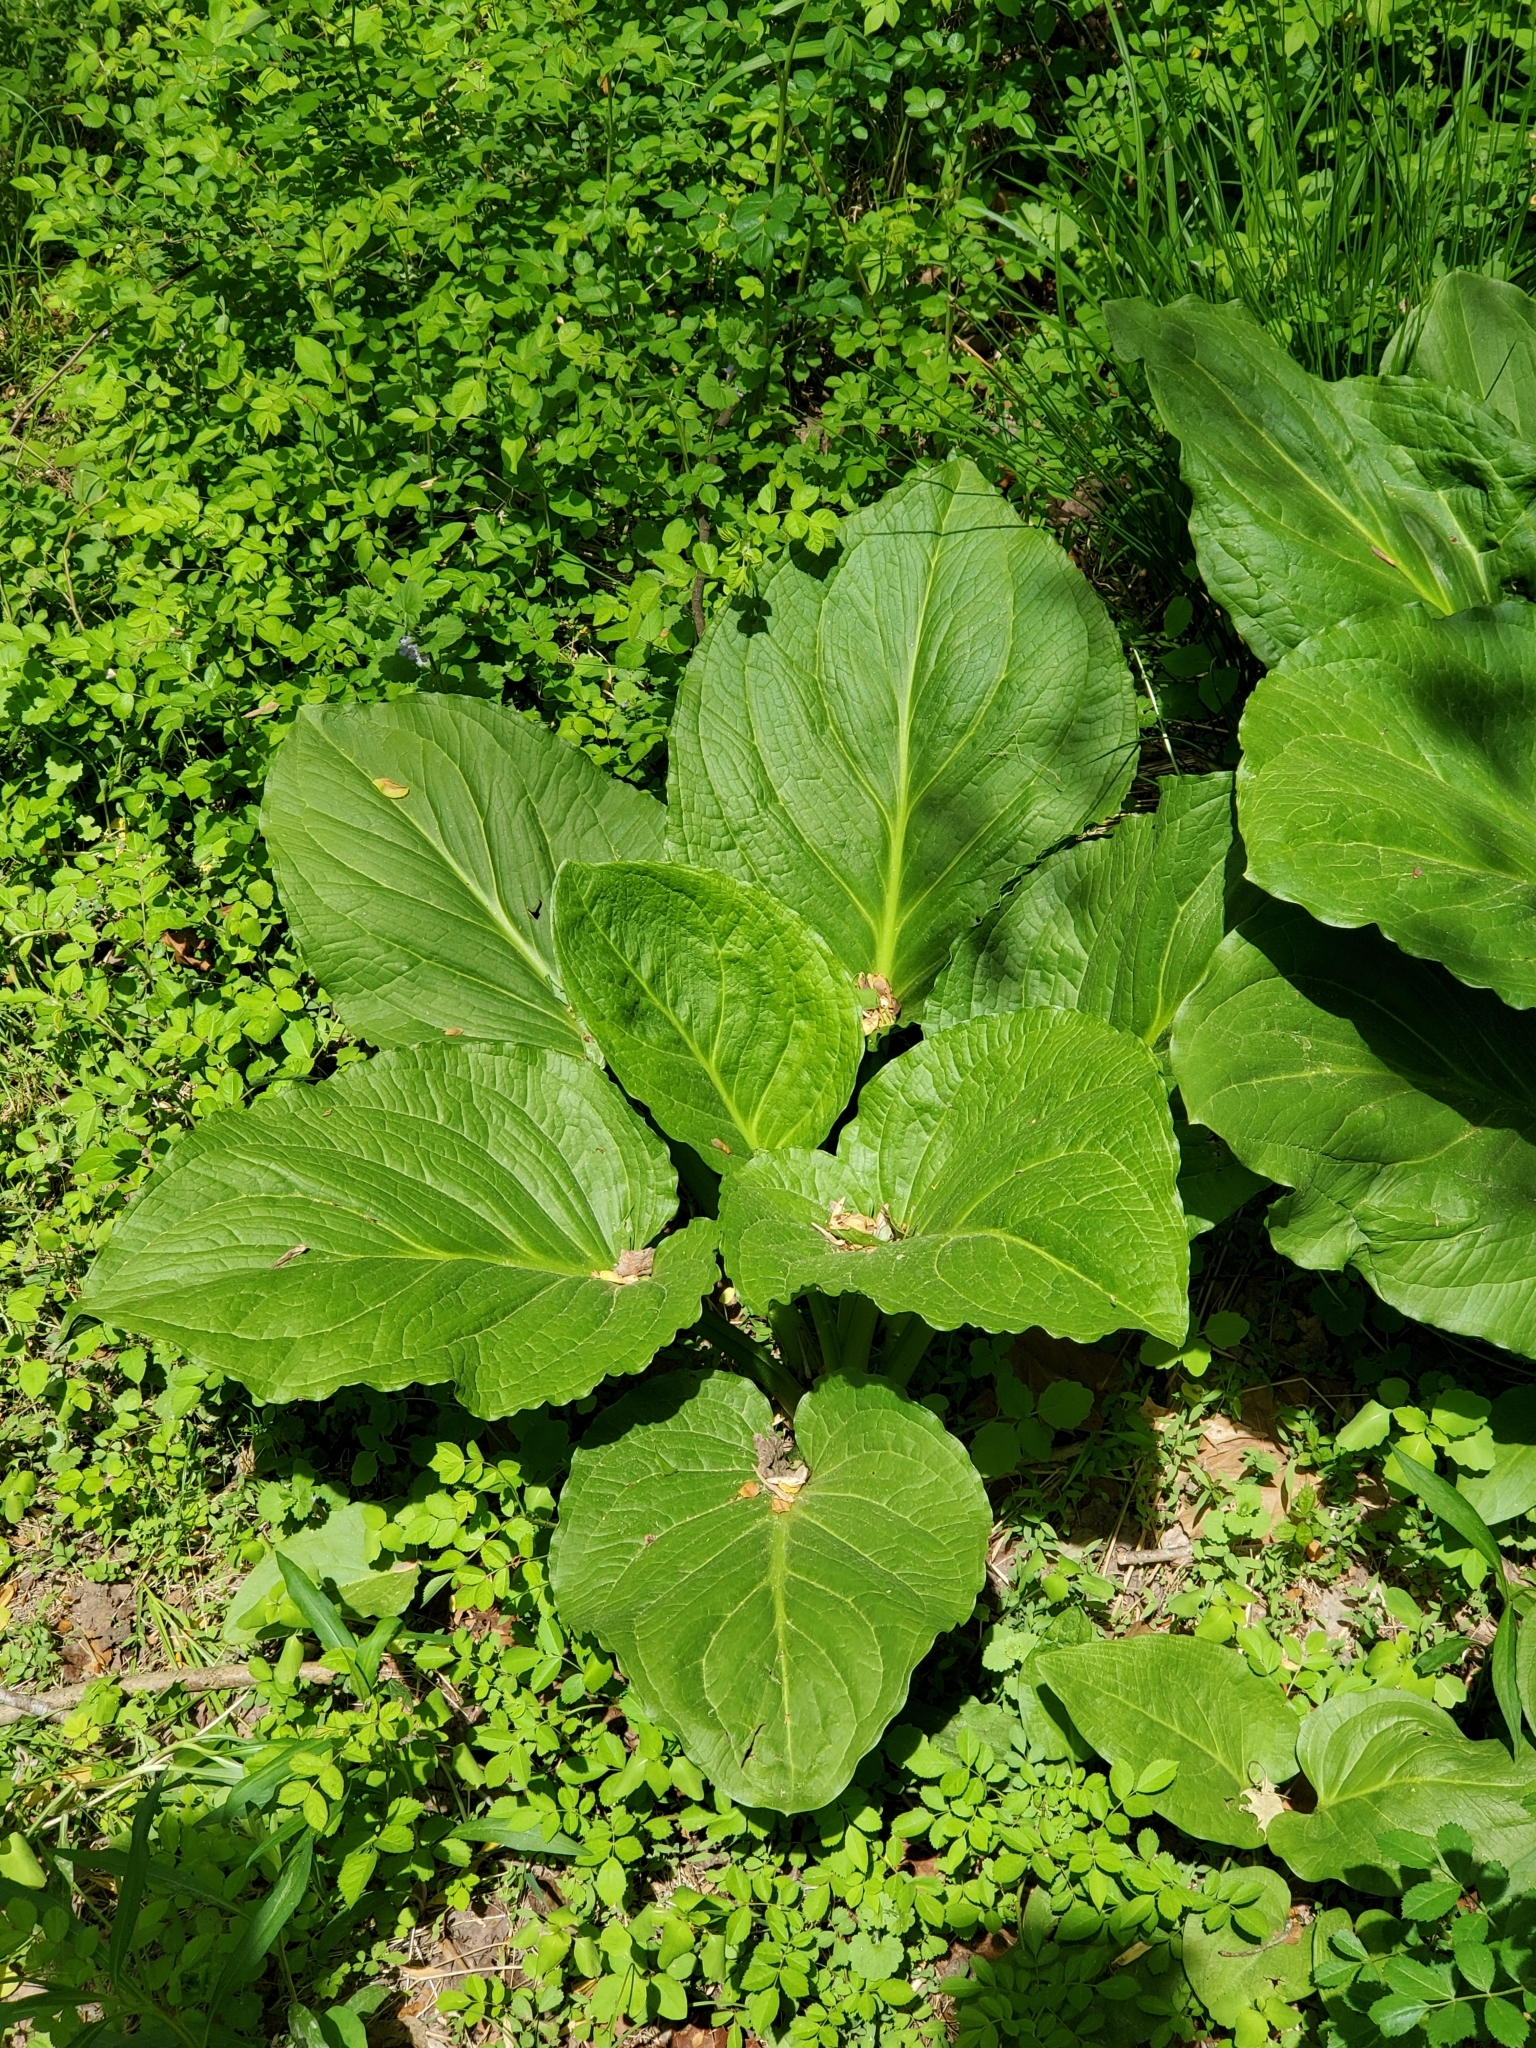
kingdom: Plantae
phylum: Tracheophyta
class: Liliopsida
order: Alismatales
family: Araceae
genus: Symplocarpus
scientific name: Symplocarpus foetidus
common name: Eastern skunk cabbage
